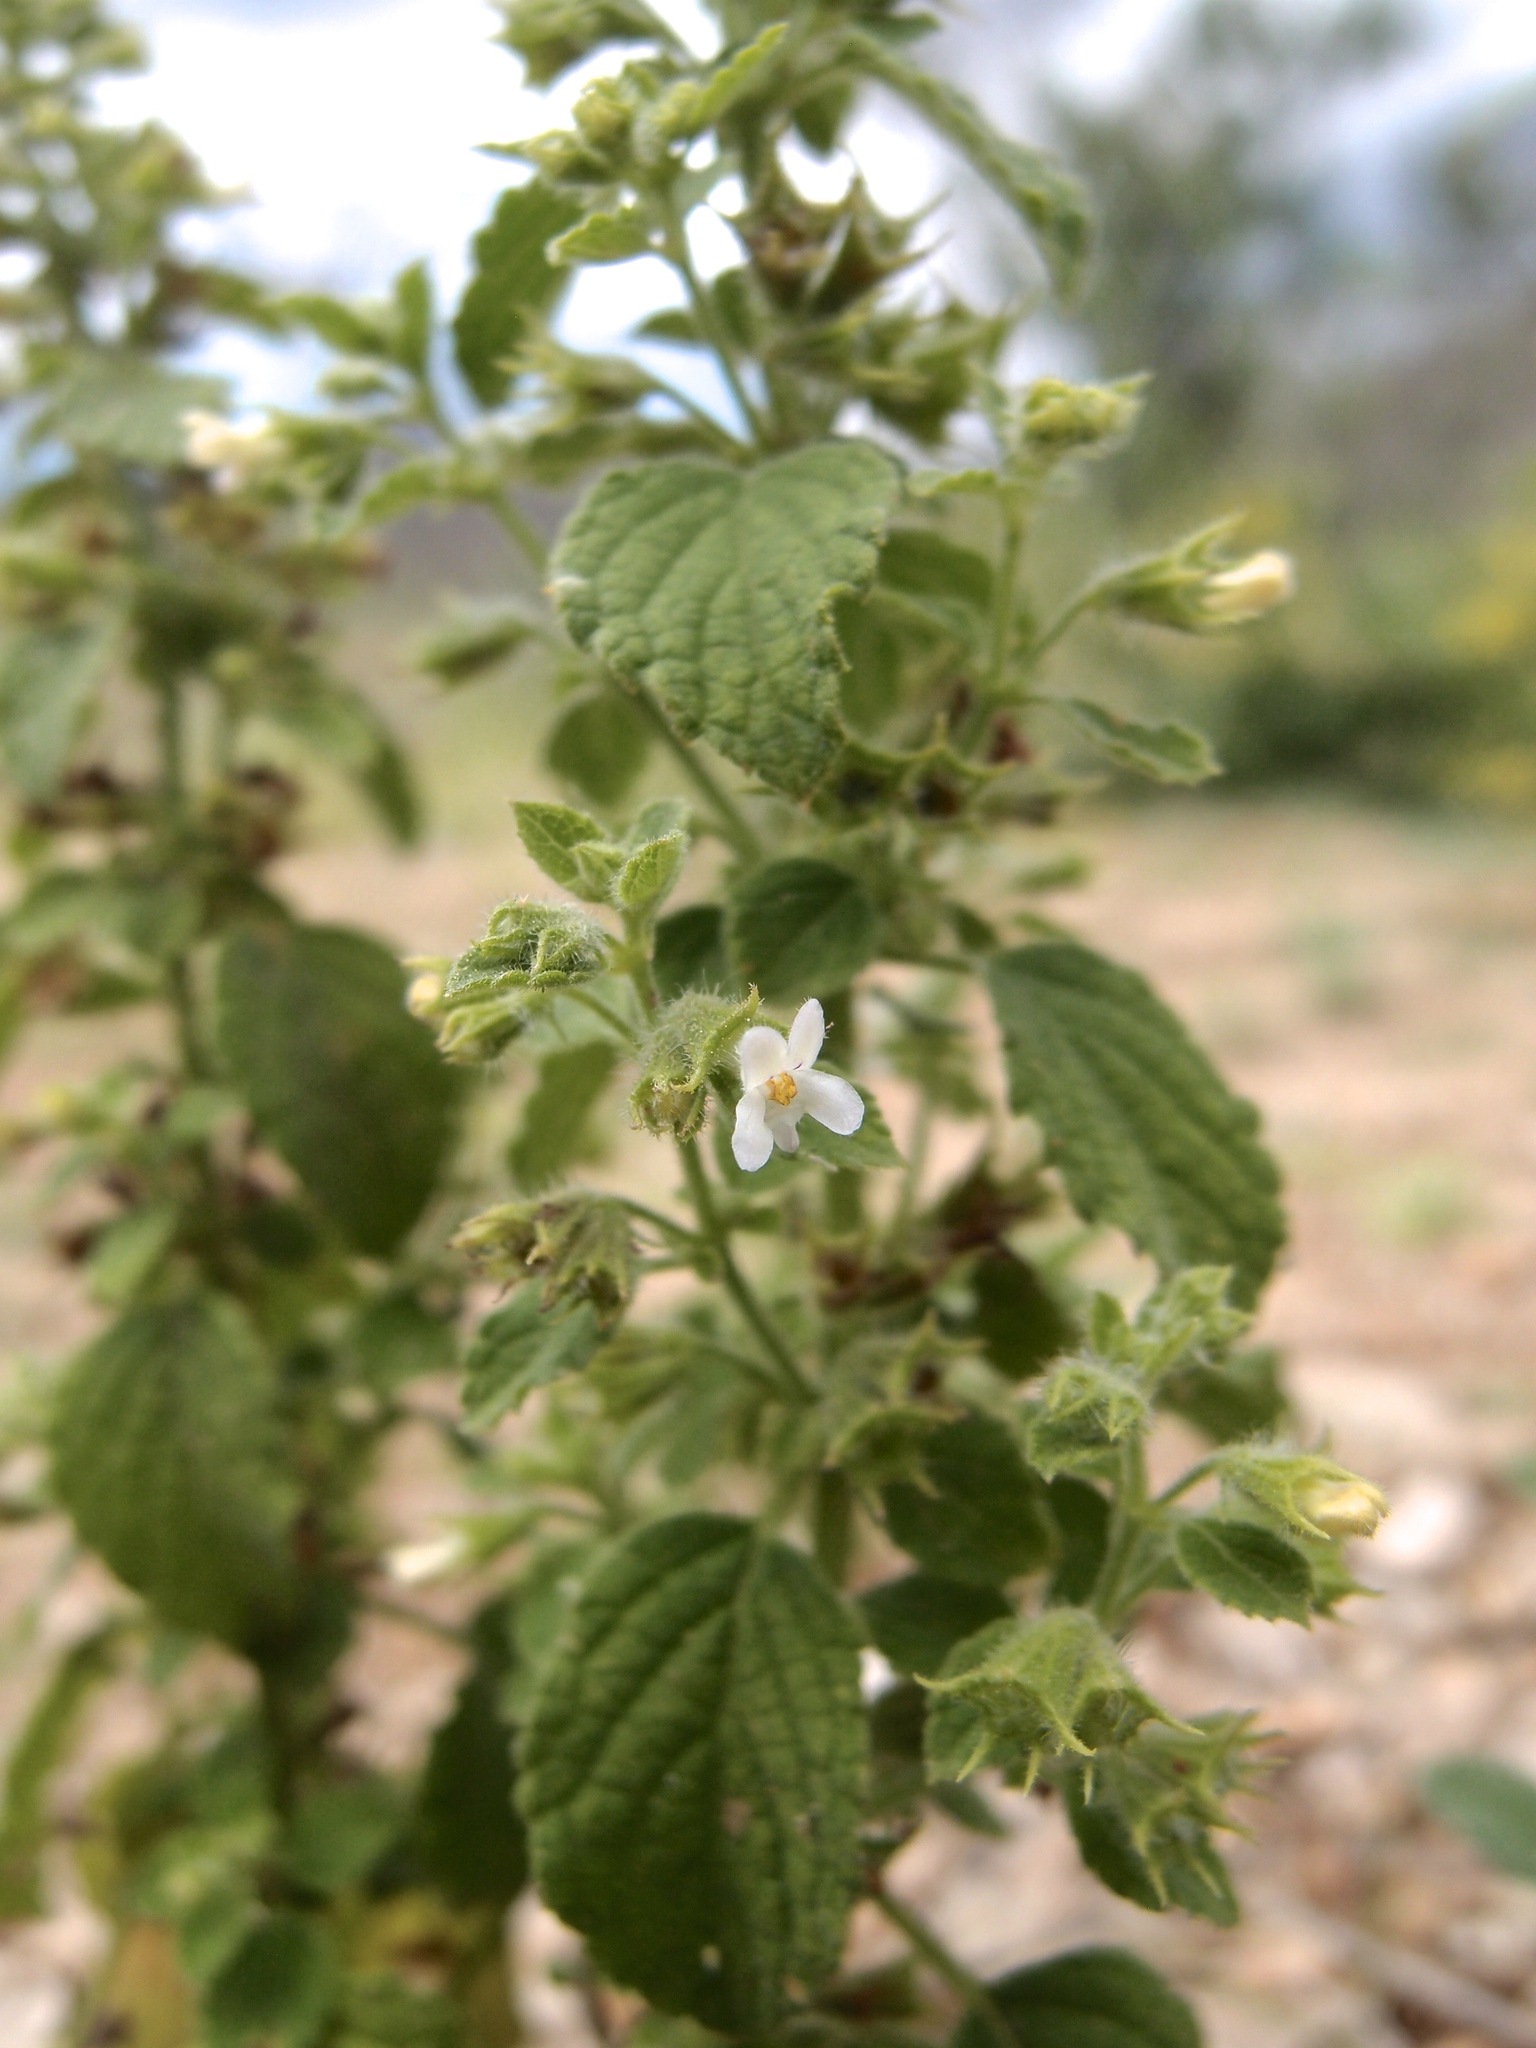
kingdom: Plantae
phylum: Tracheophyta
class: Magnoliopsida
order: Lamiales
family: Lamiaceae
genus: Mesosphaerum
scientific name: Mesosphaerum suaveolens
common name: Pignut
